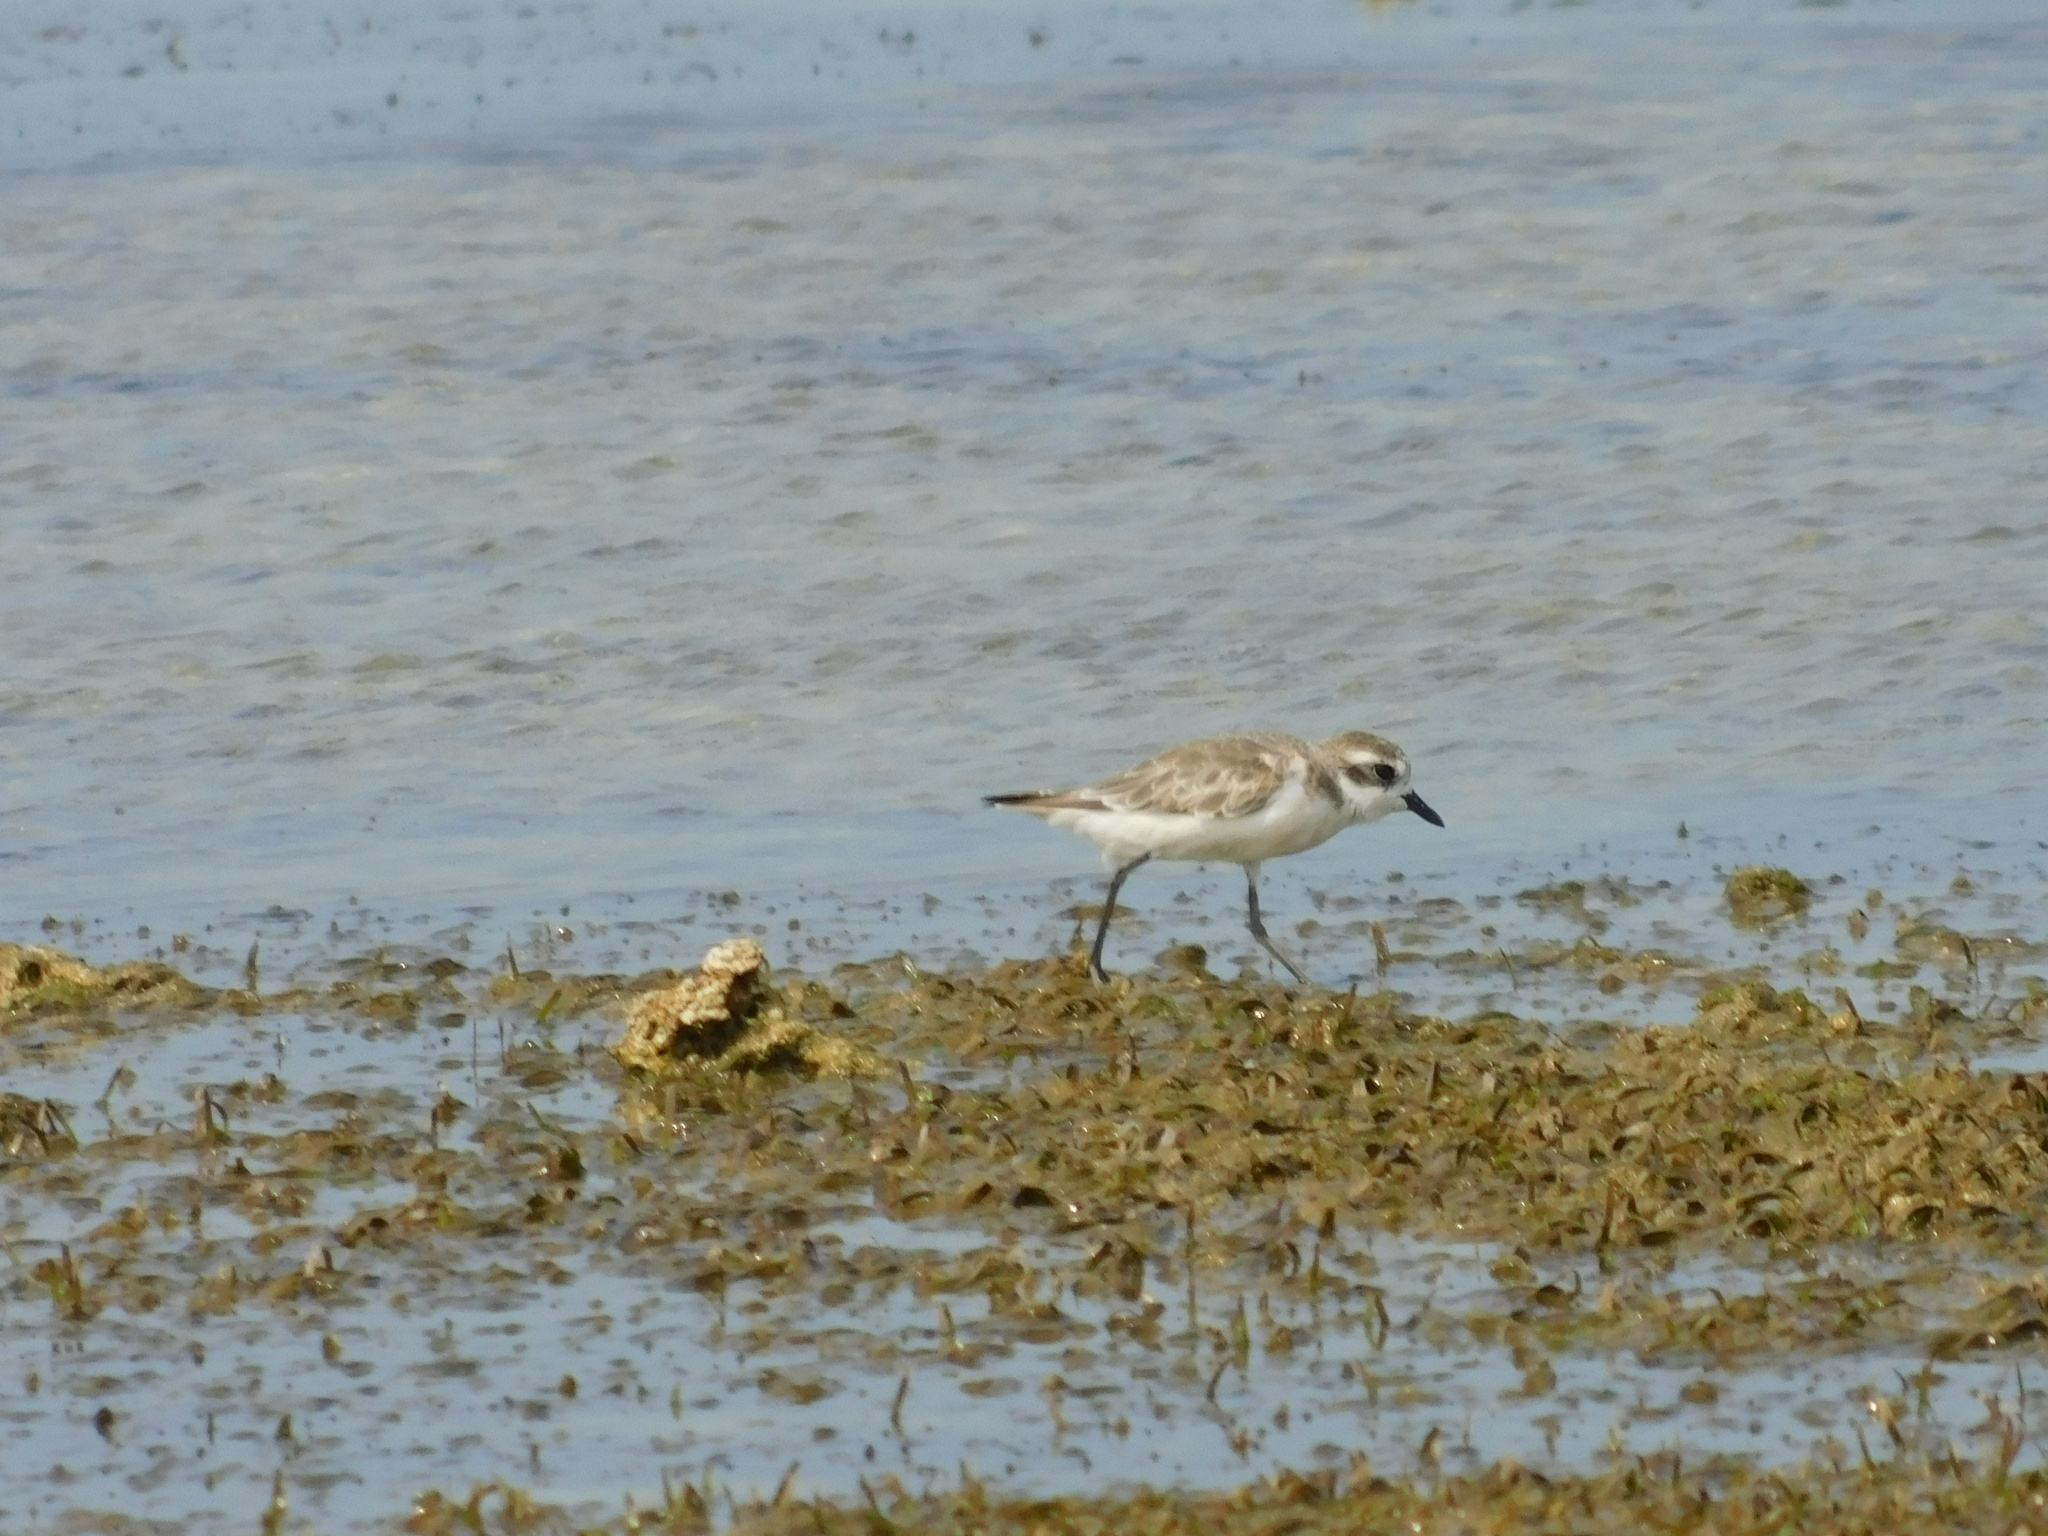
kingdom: Animalia
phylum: Chordata
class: Aves
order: Charadriiformes
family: Charadriidae
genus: Charadrius
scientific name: Charadrius leschenaultii
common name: Greater sand plover
